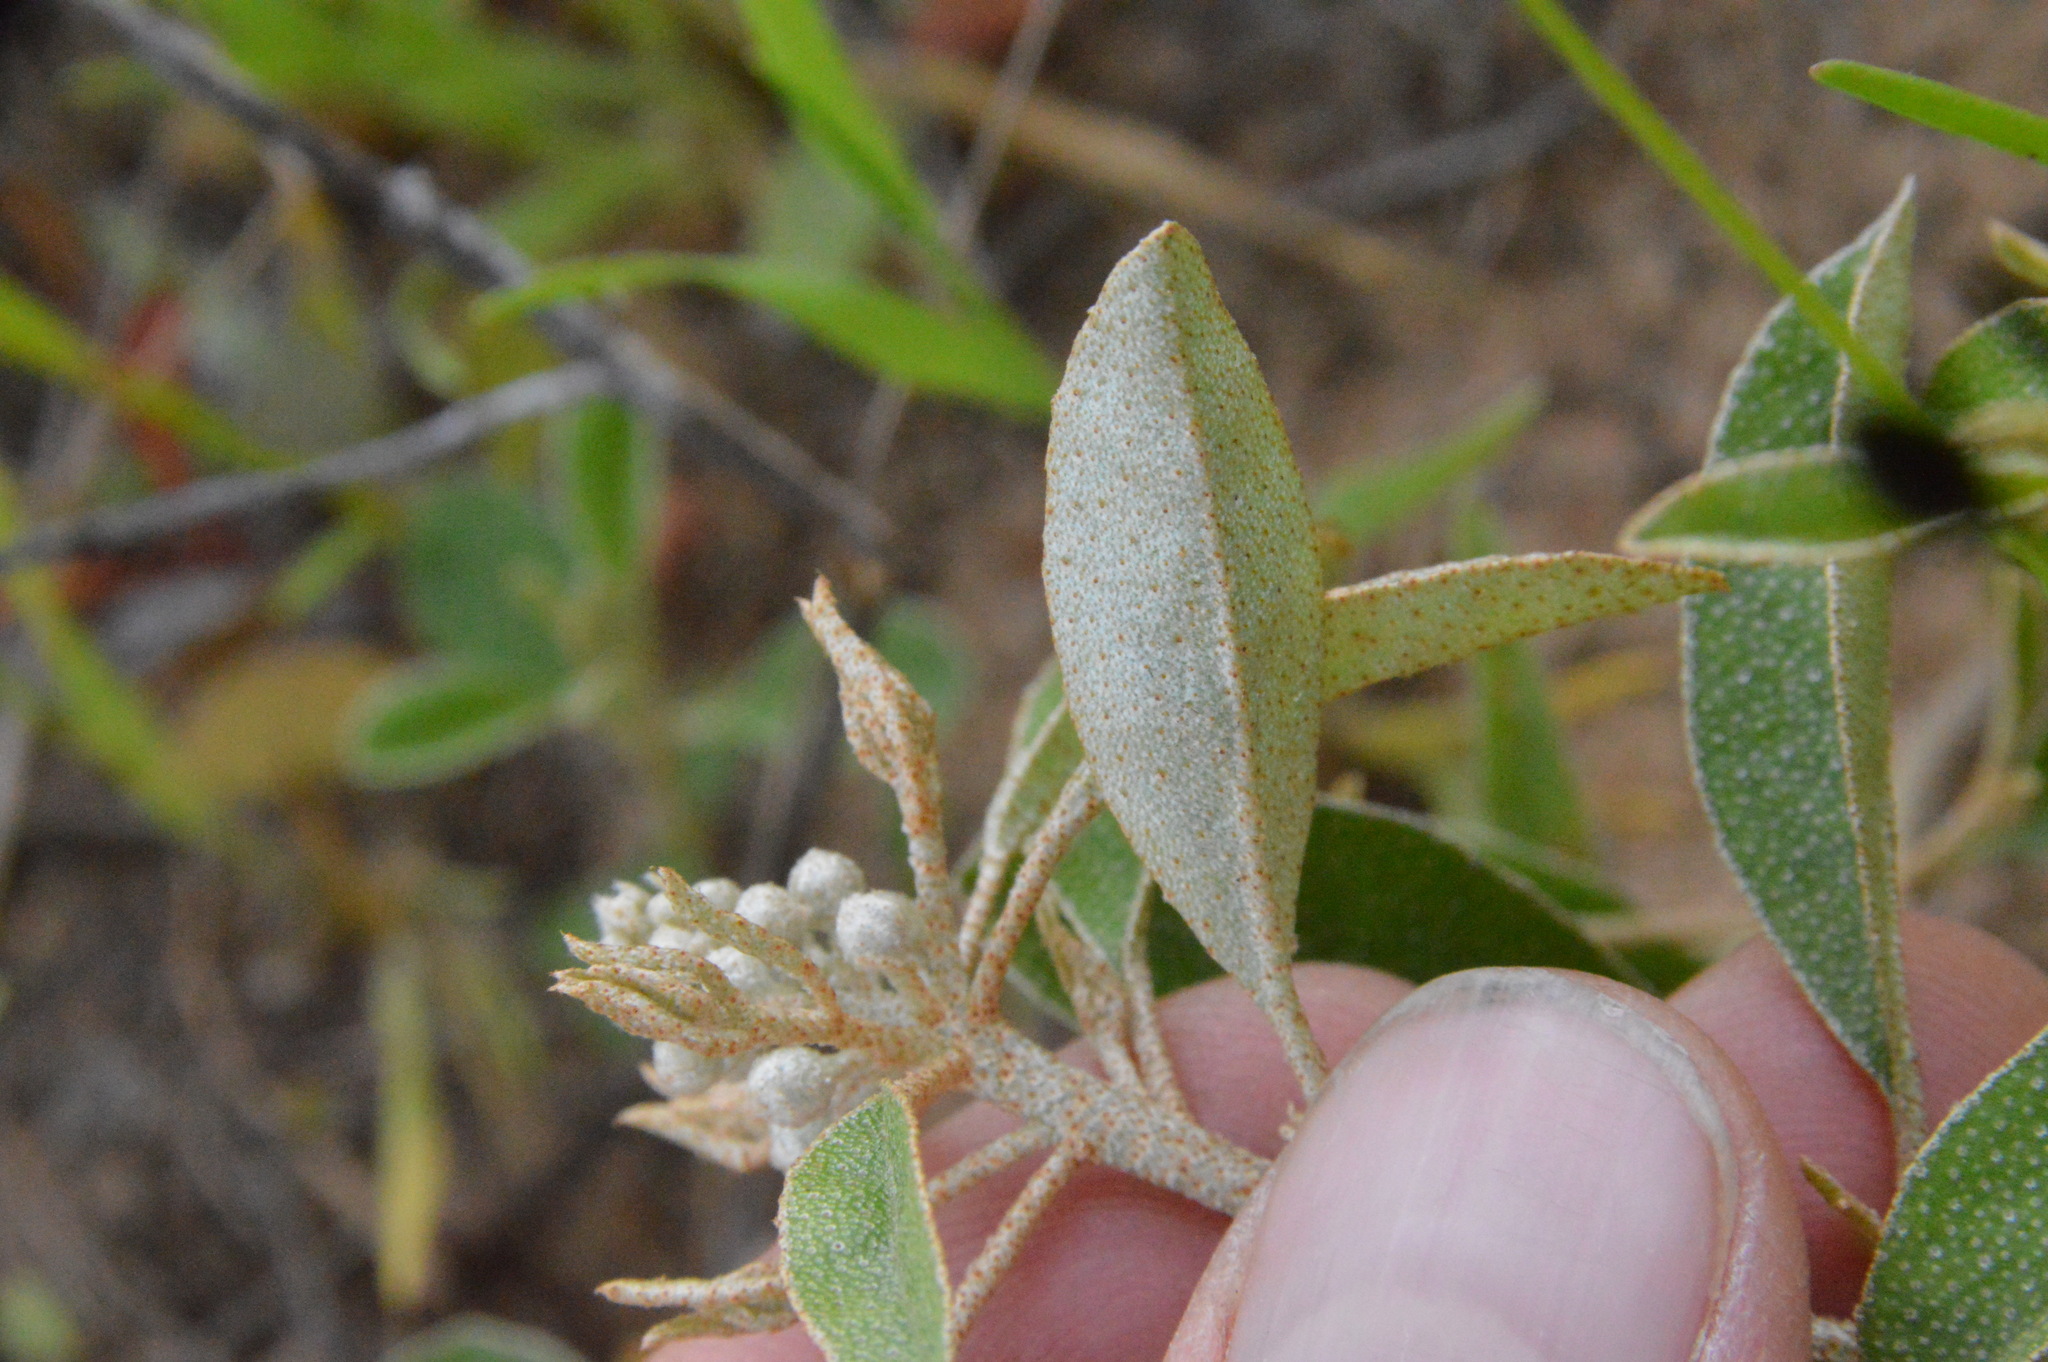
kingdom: Plantae
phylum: Tracheophyta
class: Magnoliopsida
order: Malpighiales
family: Euphorbiaceae
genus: Croton
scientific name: Croton argyranthemus
